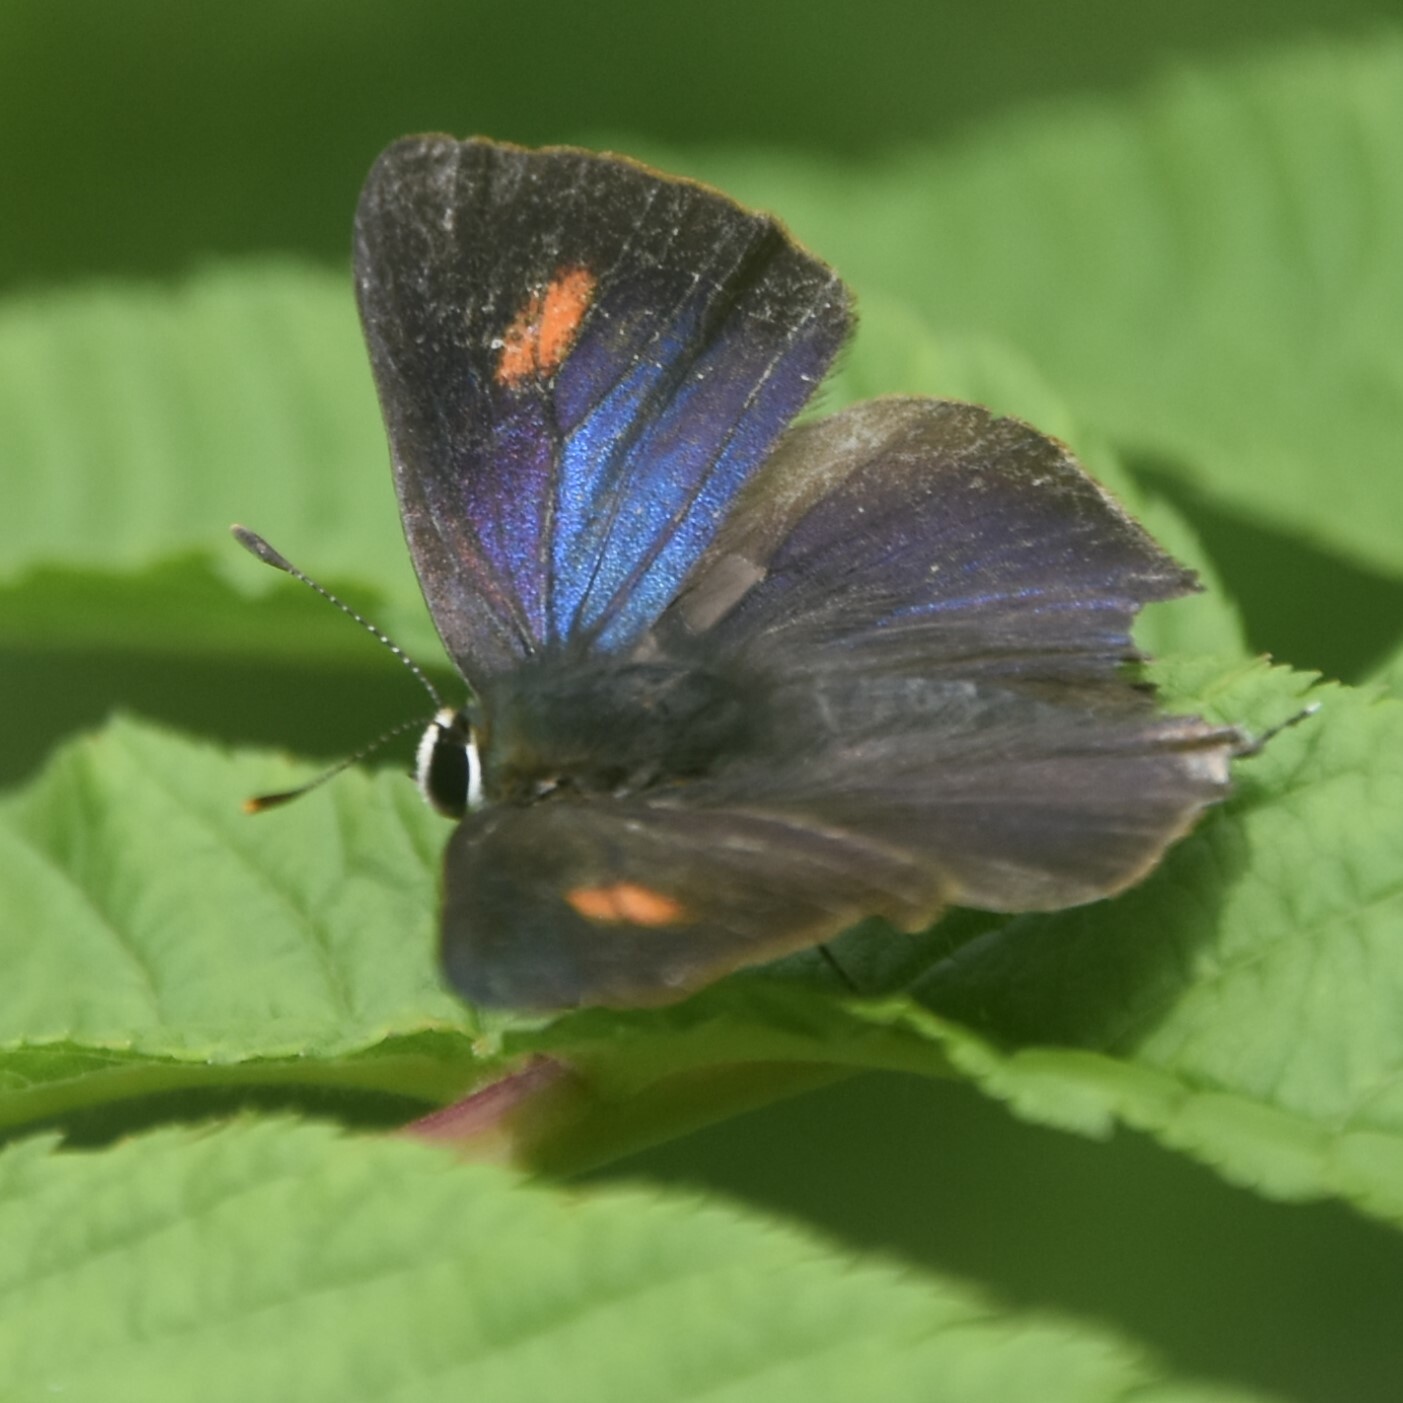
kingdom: Animalia
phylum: Arthropoda
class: Insecta
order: Lepidoptera
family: Lycaenidae
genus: Rapala
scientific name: Rapala nissa
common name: Common flash
